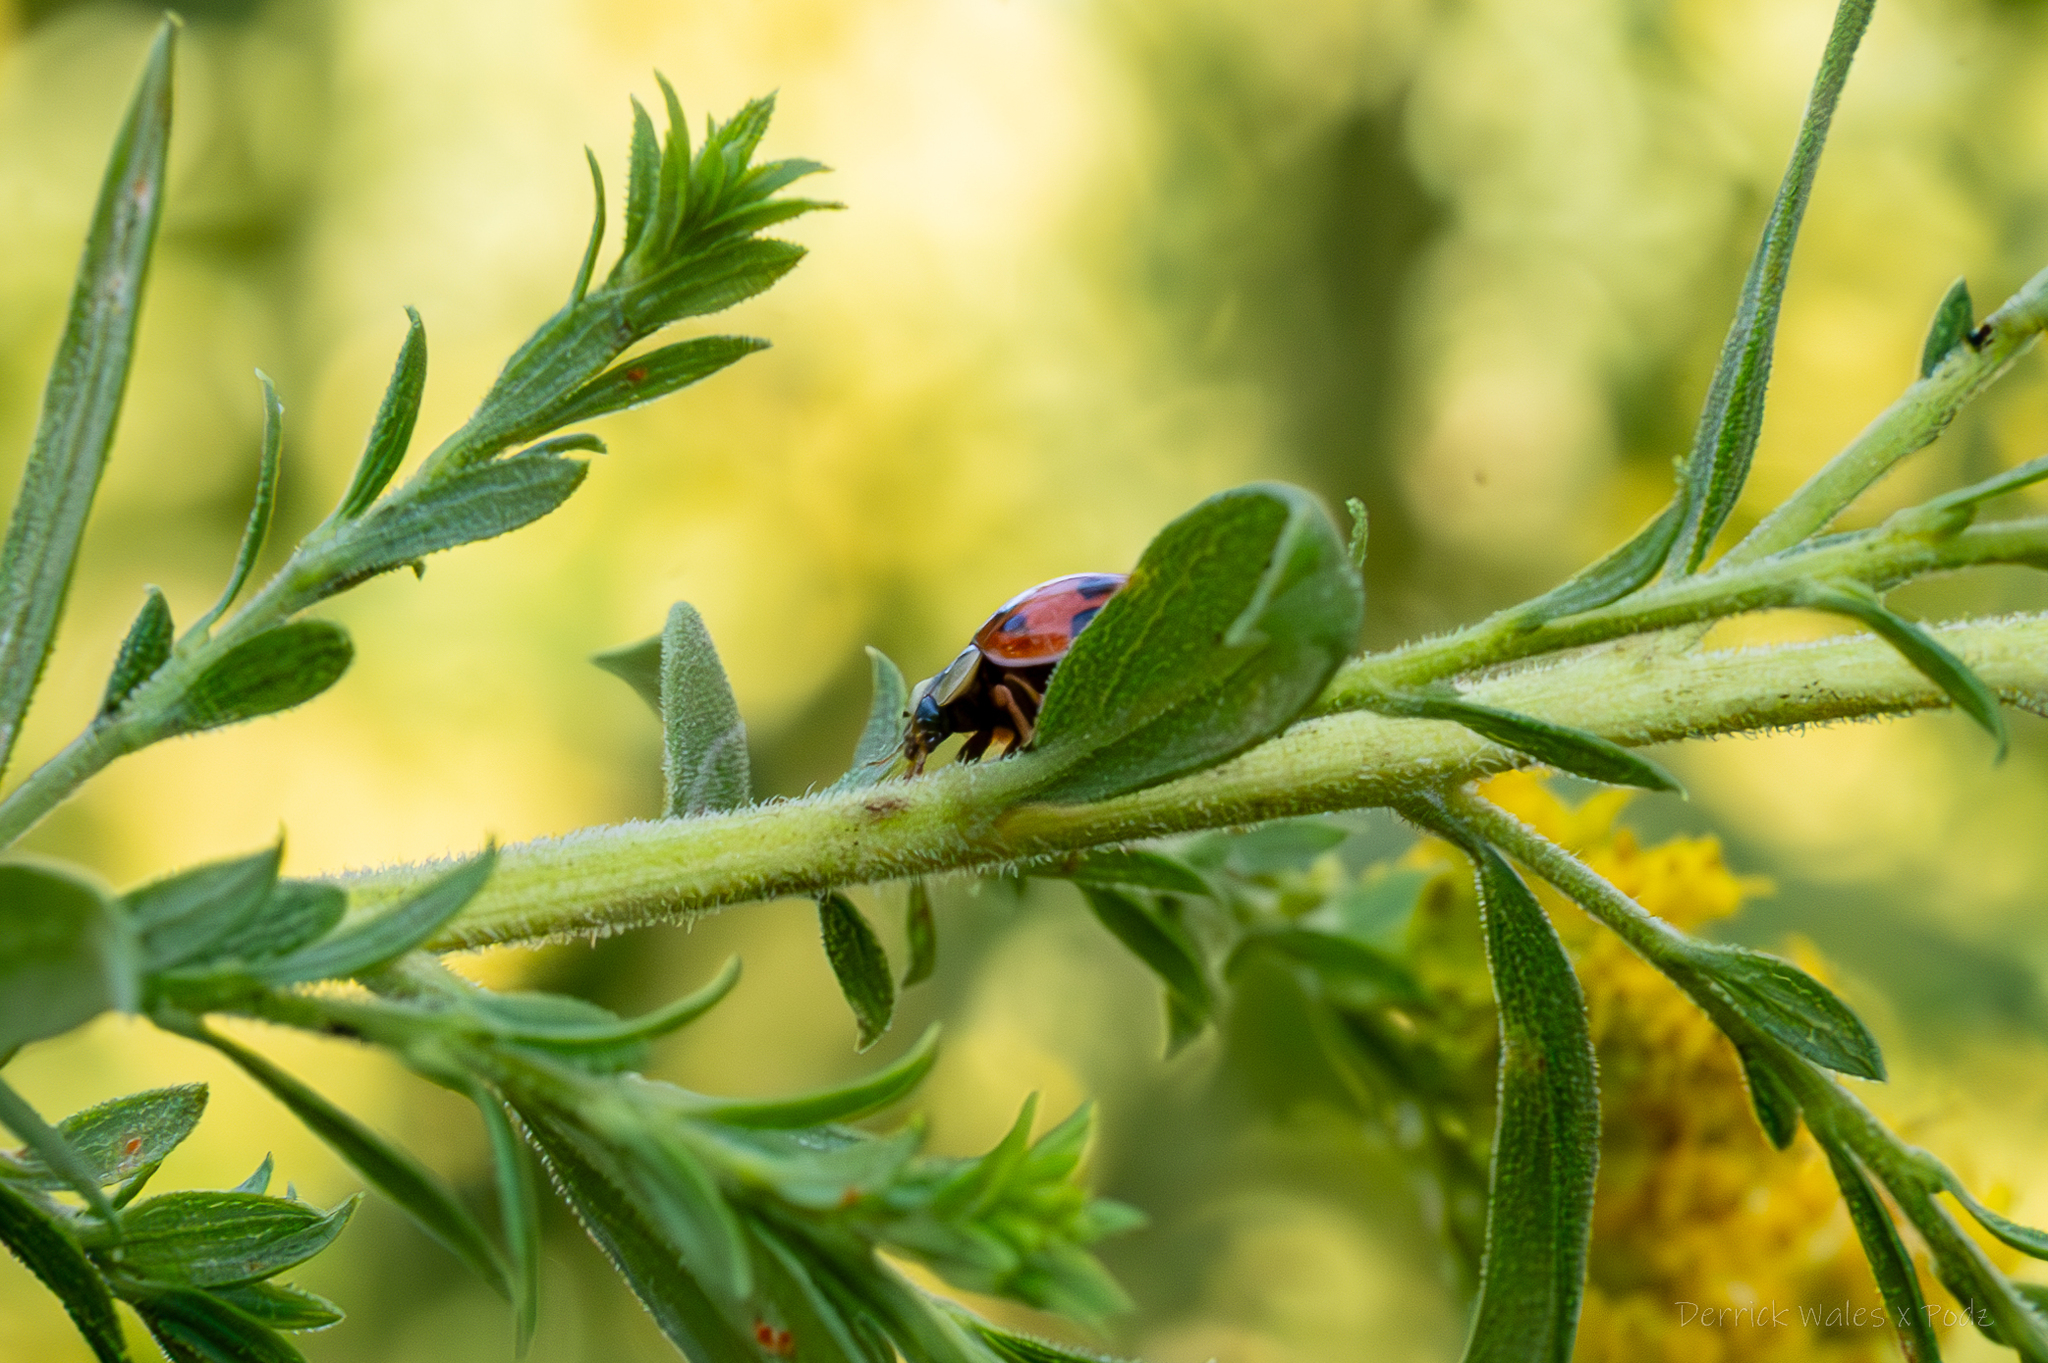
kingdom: Animalia
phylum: Arthropoda
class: Insecta
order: Coleoptera
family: Coccinellidae
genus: Harmonia
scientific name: Harmonia axyridis
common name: Harlequin ladybird
